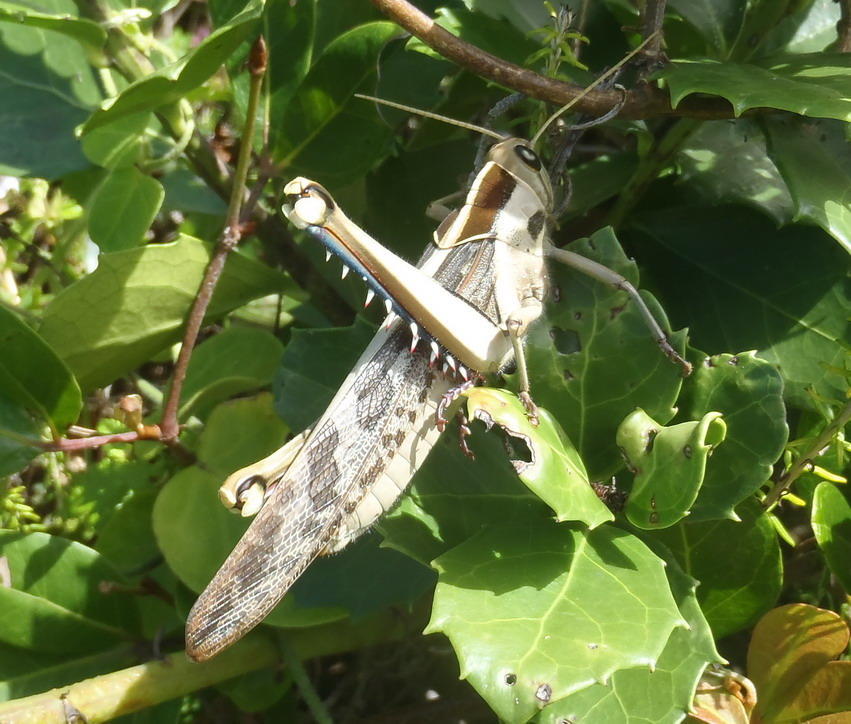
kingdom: Animalia
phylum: Arthropoda
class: Insecta
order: Orthoptera
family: Acrididae
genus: Acanthacris
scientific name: Acanthacris ruficornis
